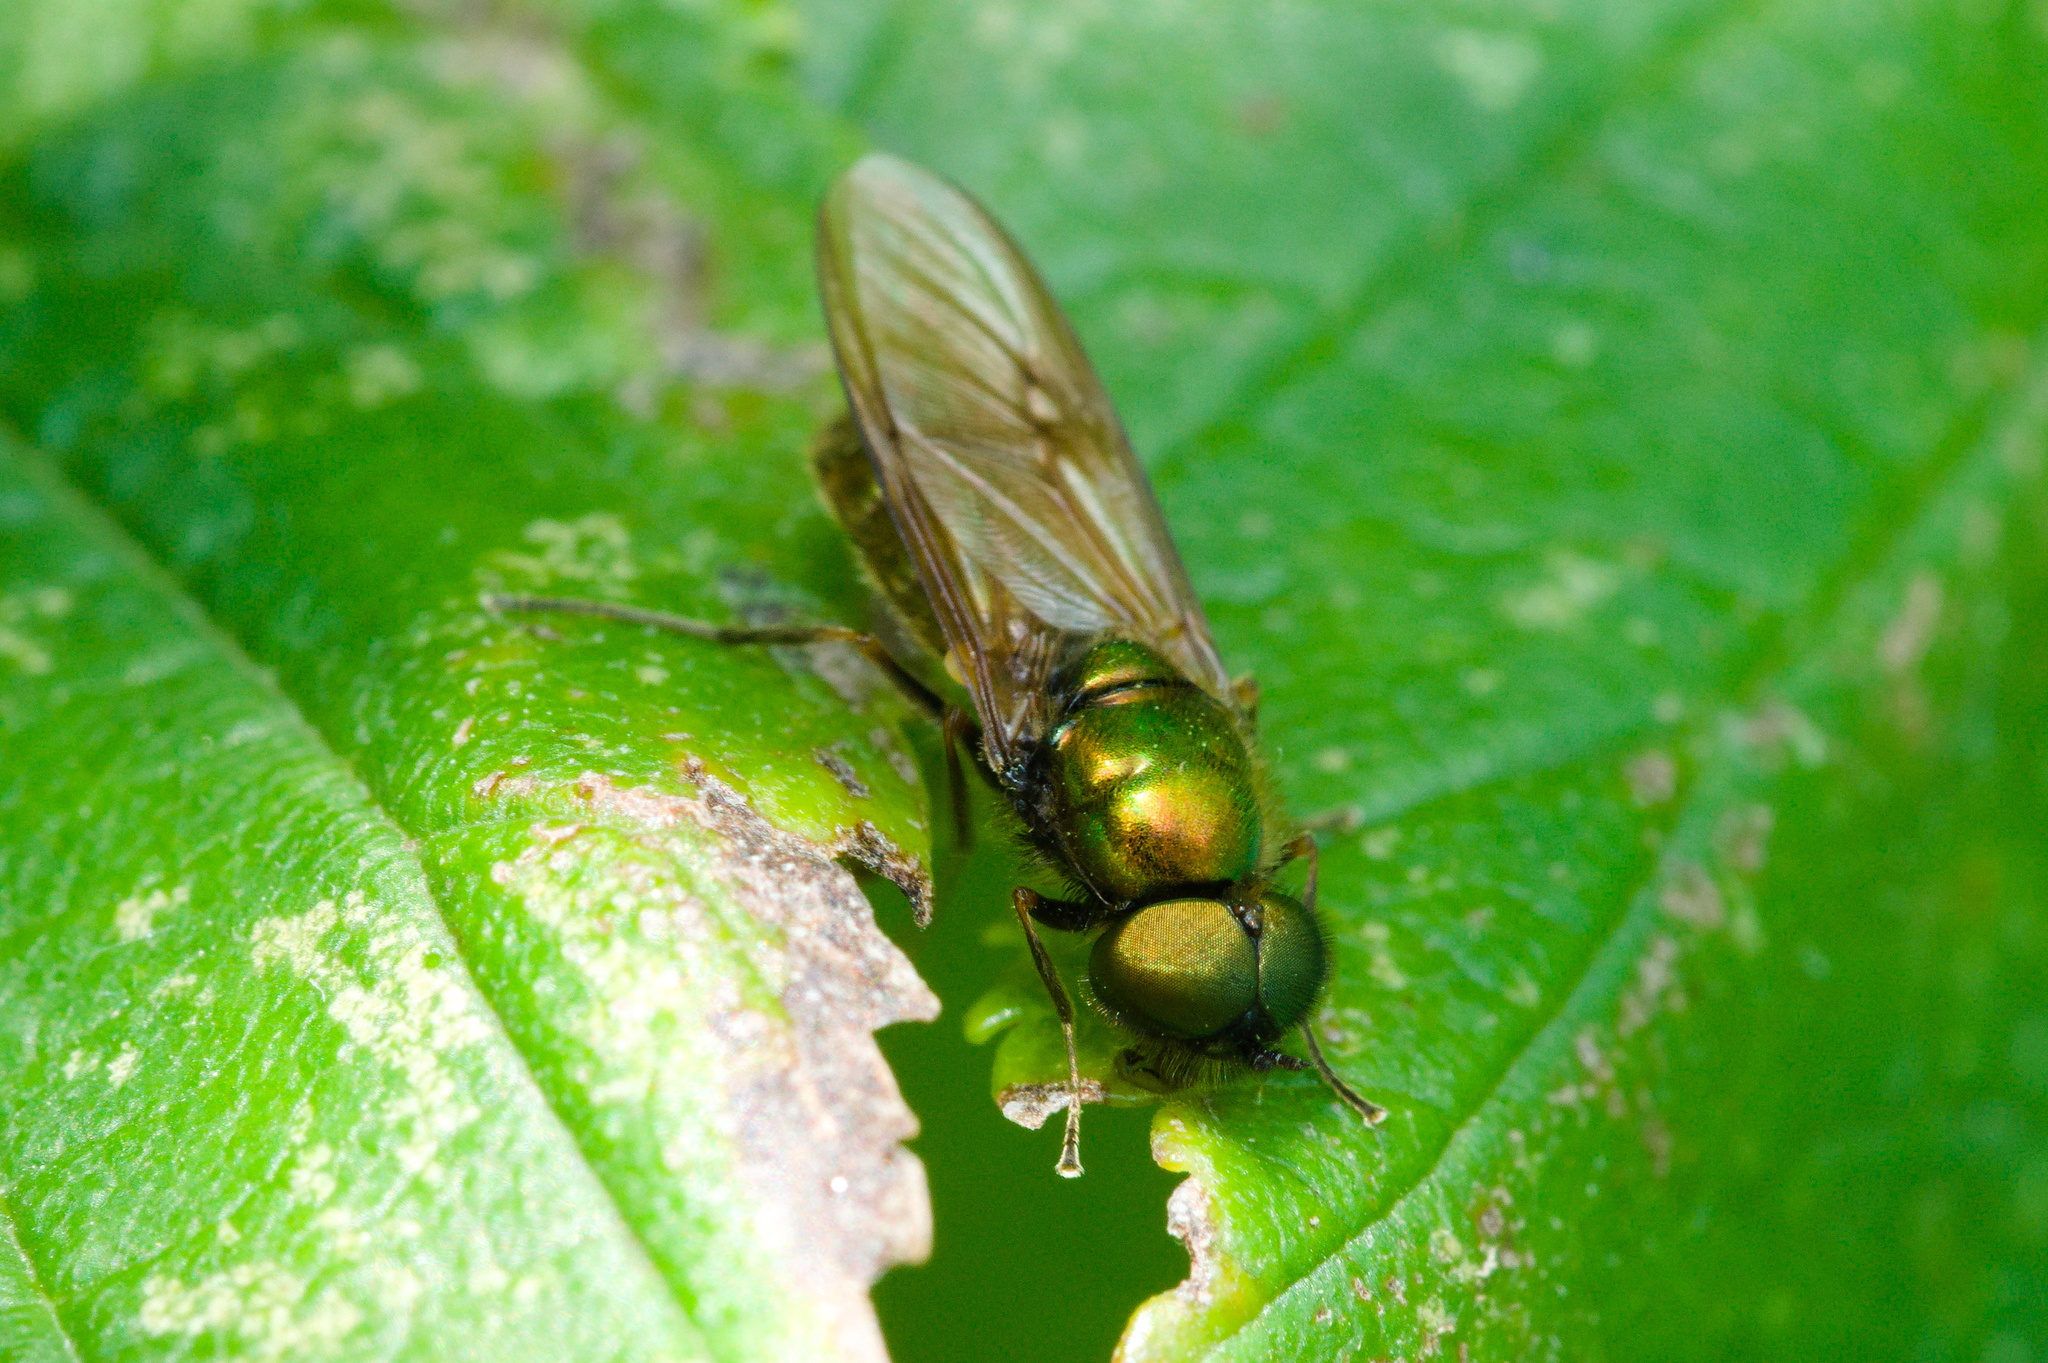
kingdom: Animalia
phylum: Arthropoda
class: Insecta
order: Diptera
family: Stratiomyidae
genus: Chloromyia
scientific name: Chloromyia formosa
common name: Soldier fly
